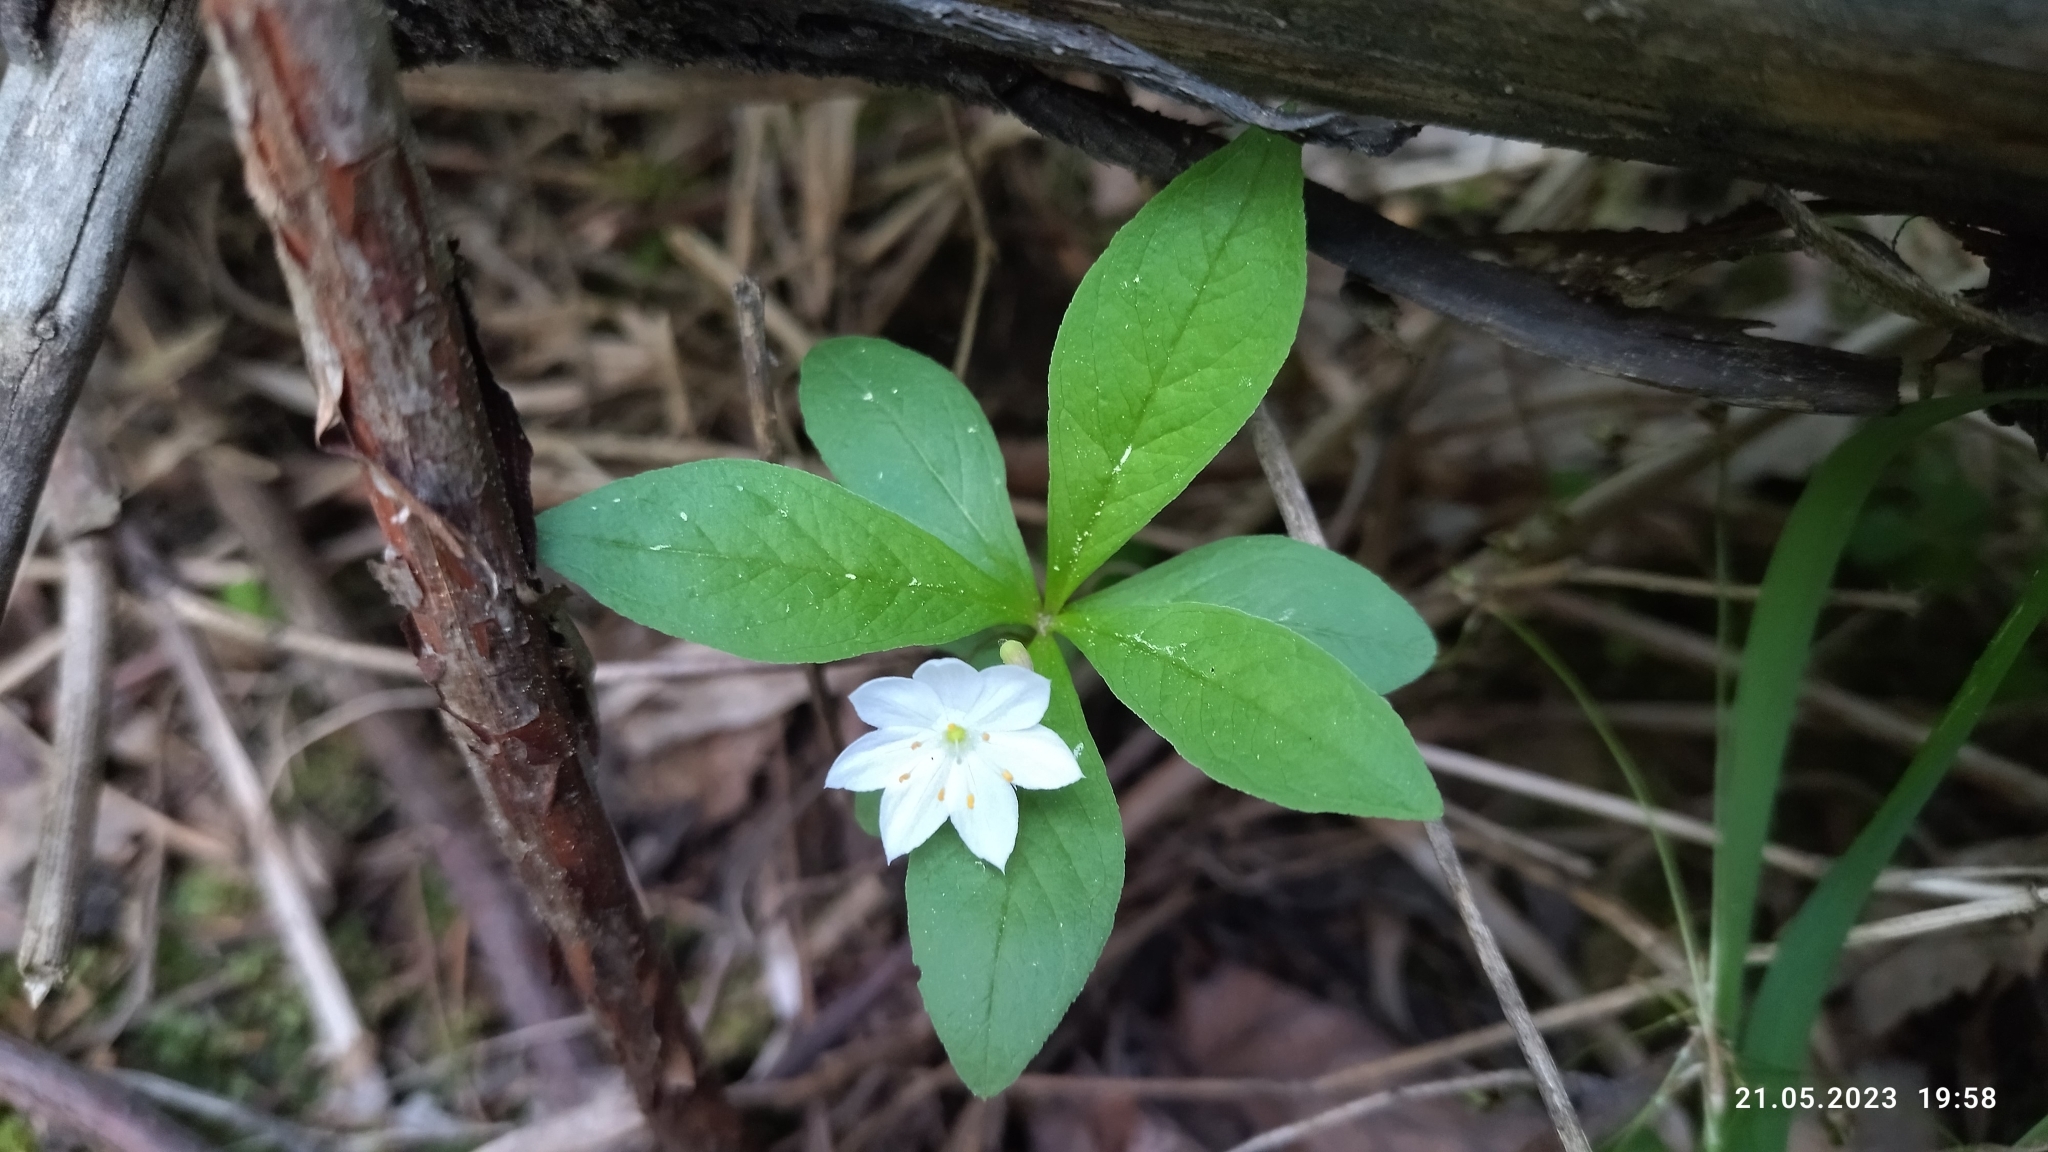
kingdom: Plantae
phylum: Tracheophyta
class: Magnoliopsida
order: Ericales
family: Primulaceae
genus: Lysimachia
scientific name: Lysimachia europaea
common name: Arctic starflower
